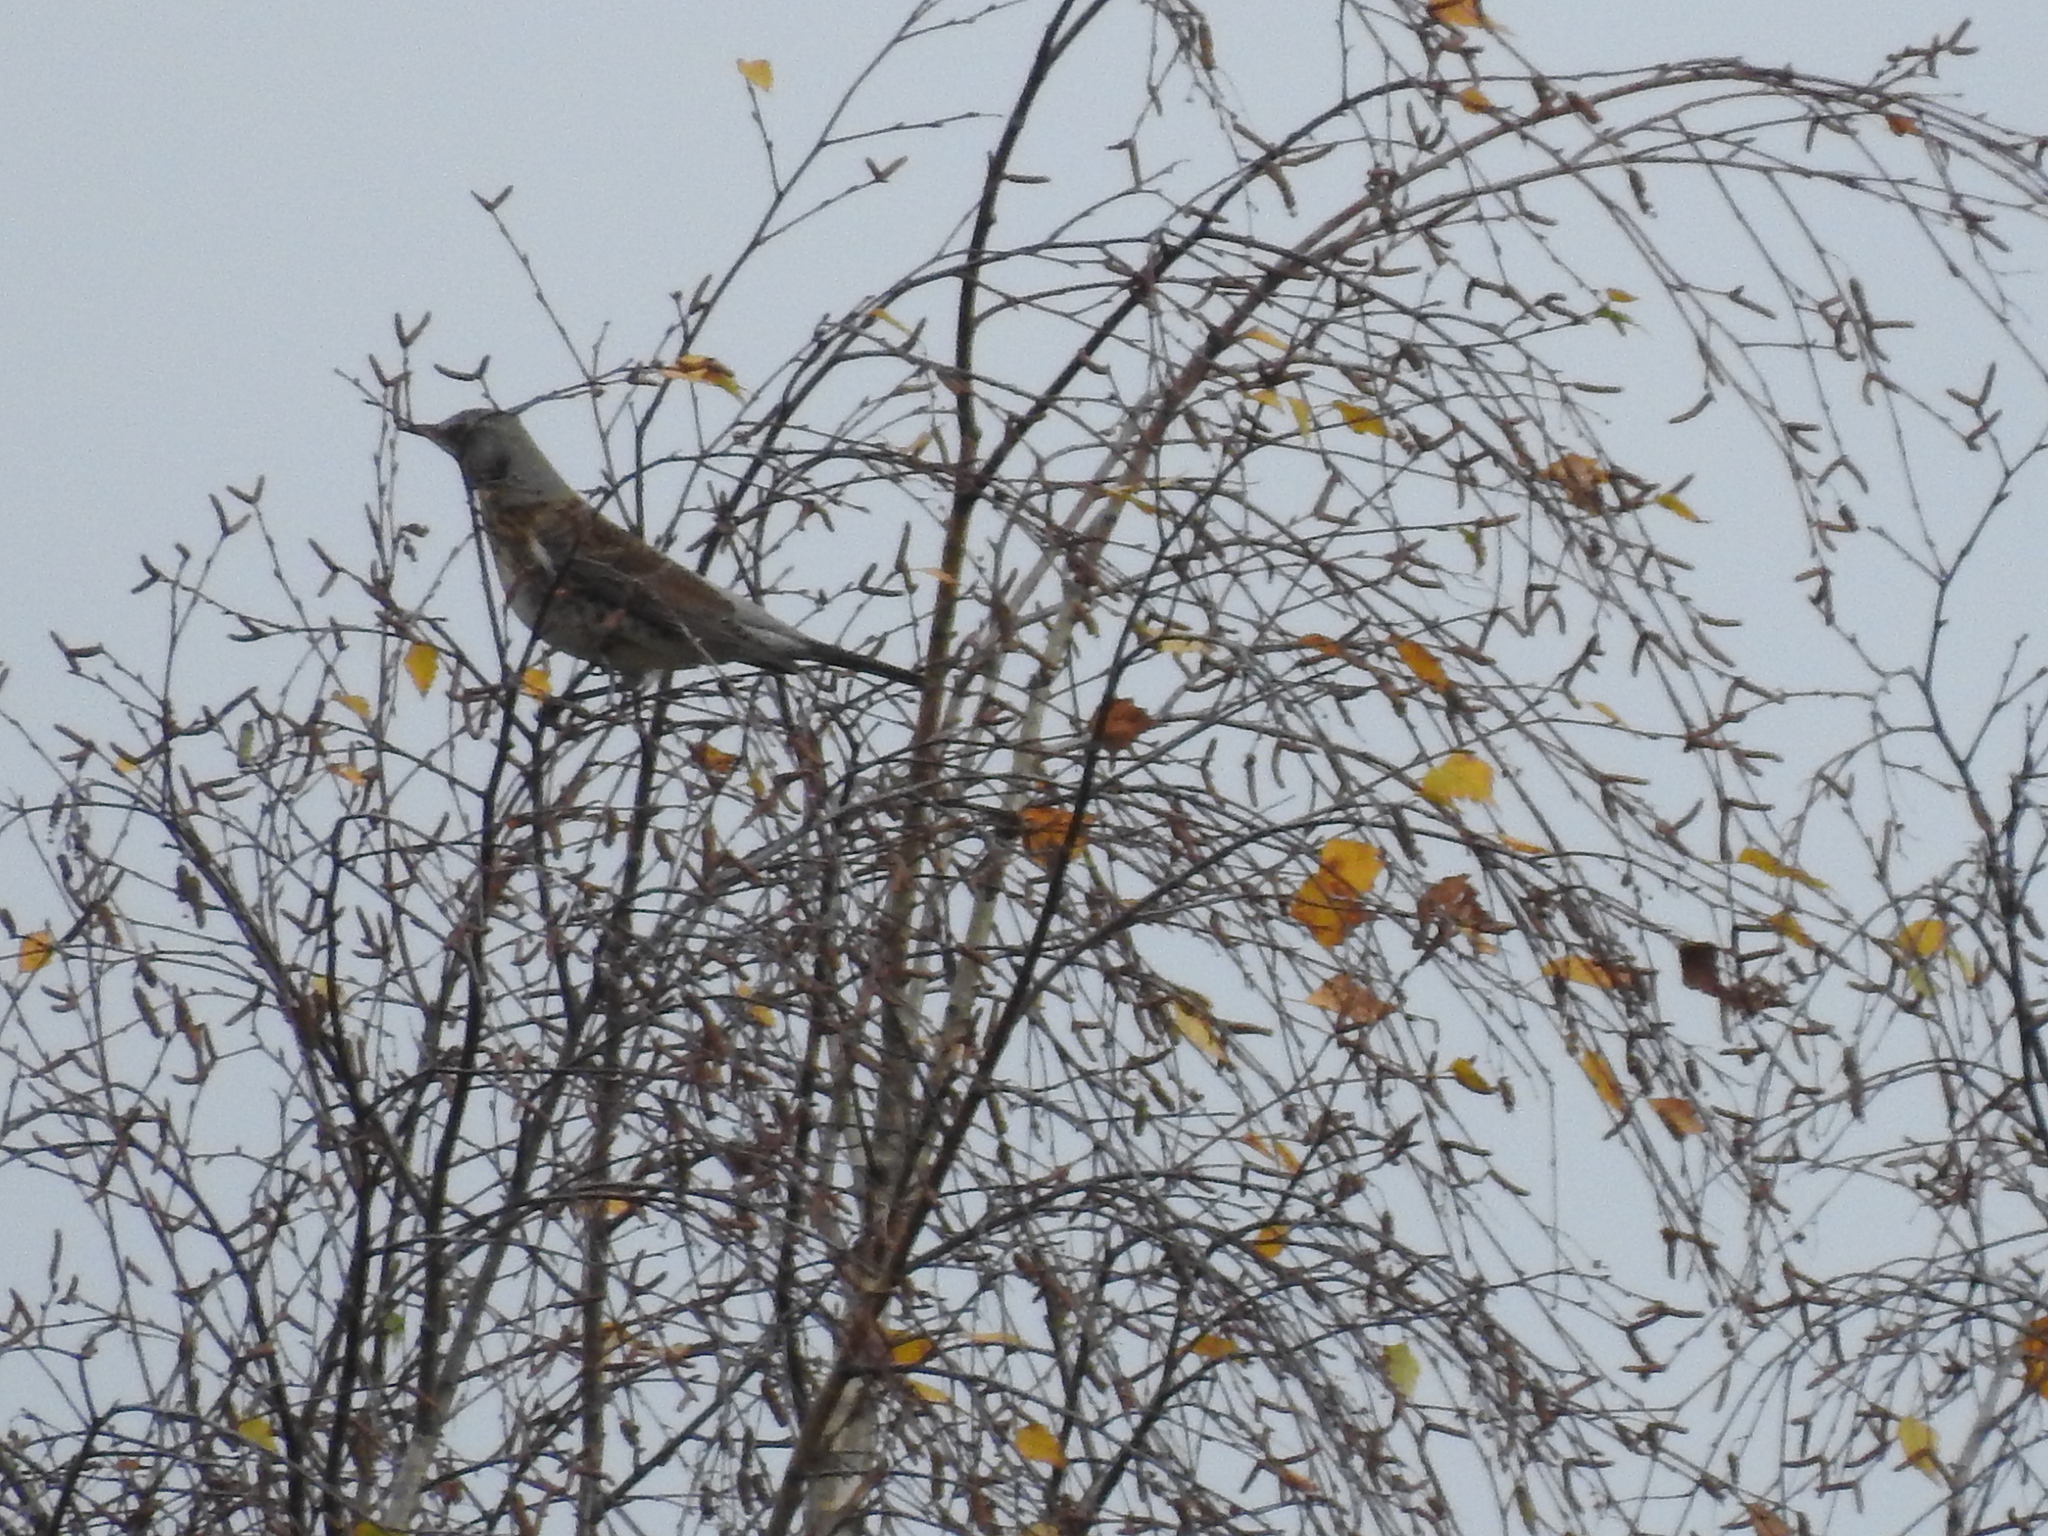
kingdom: Animalia
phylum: Chordata
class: Aves
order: Passeriformes
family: Turdidae
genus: Turdus
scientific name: Turdus pilaris
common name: Fieldfare
